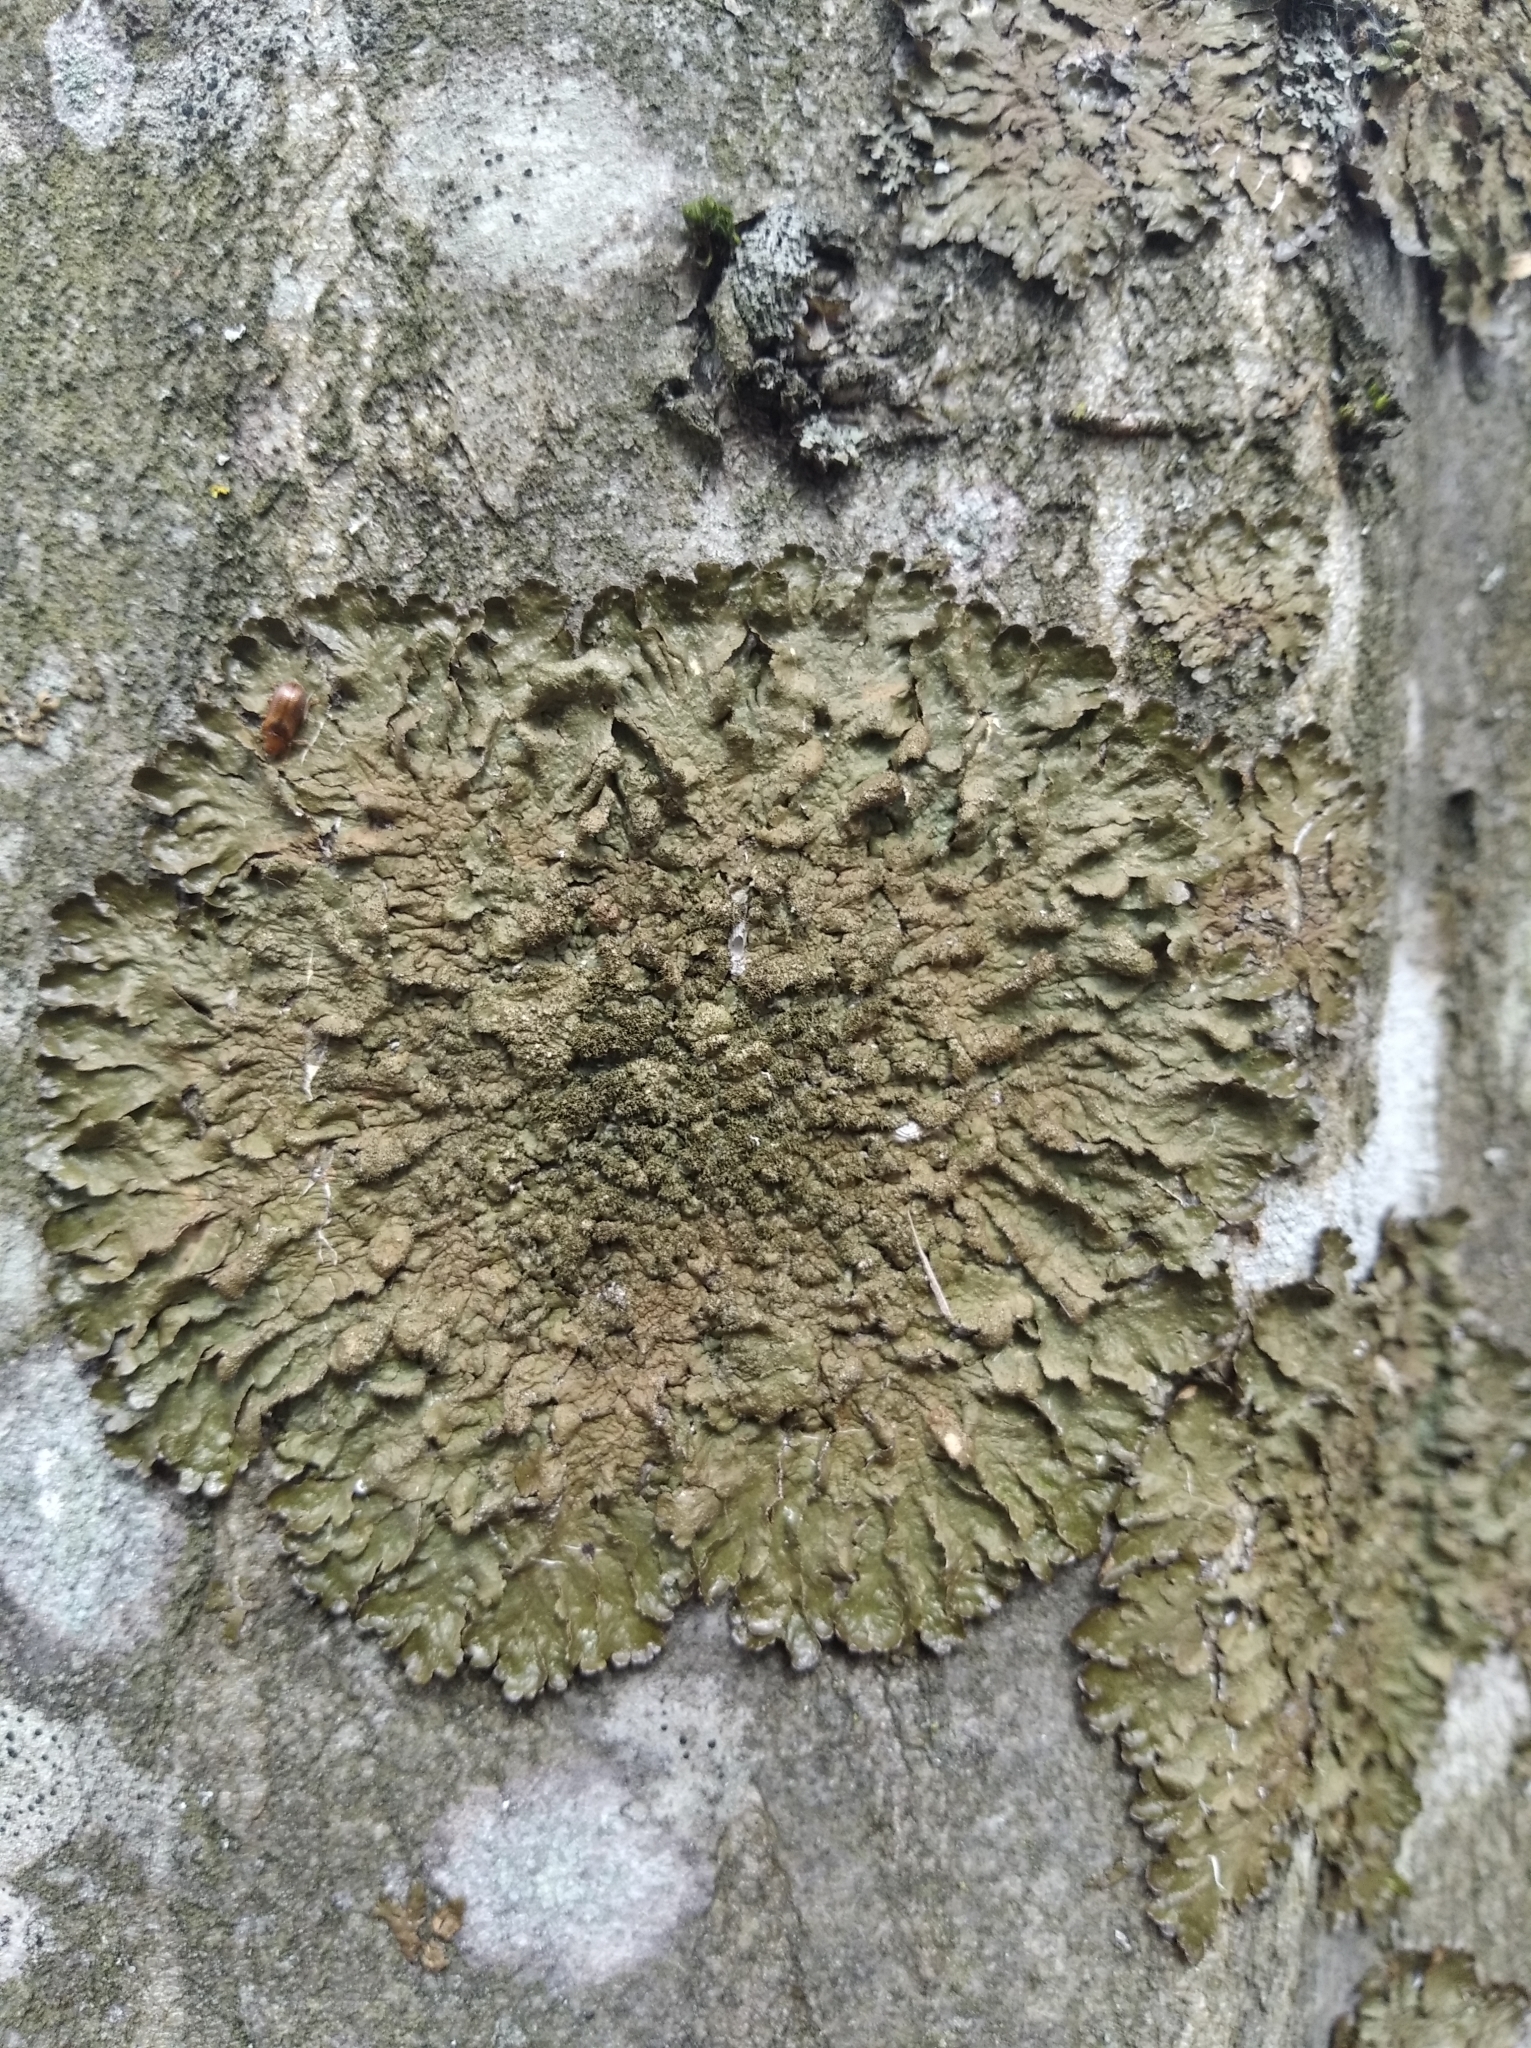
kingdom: Fungi
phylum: Ascomycota
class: Lecanoromycetes
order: Lecanorales
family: Parmeliaceae
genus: Melanelixia
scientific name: Melanelixia glabratula
